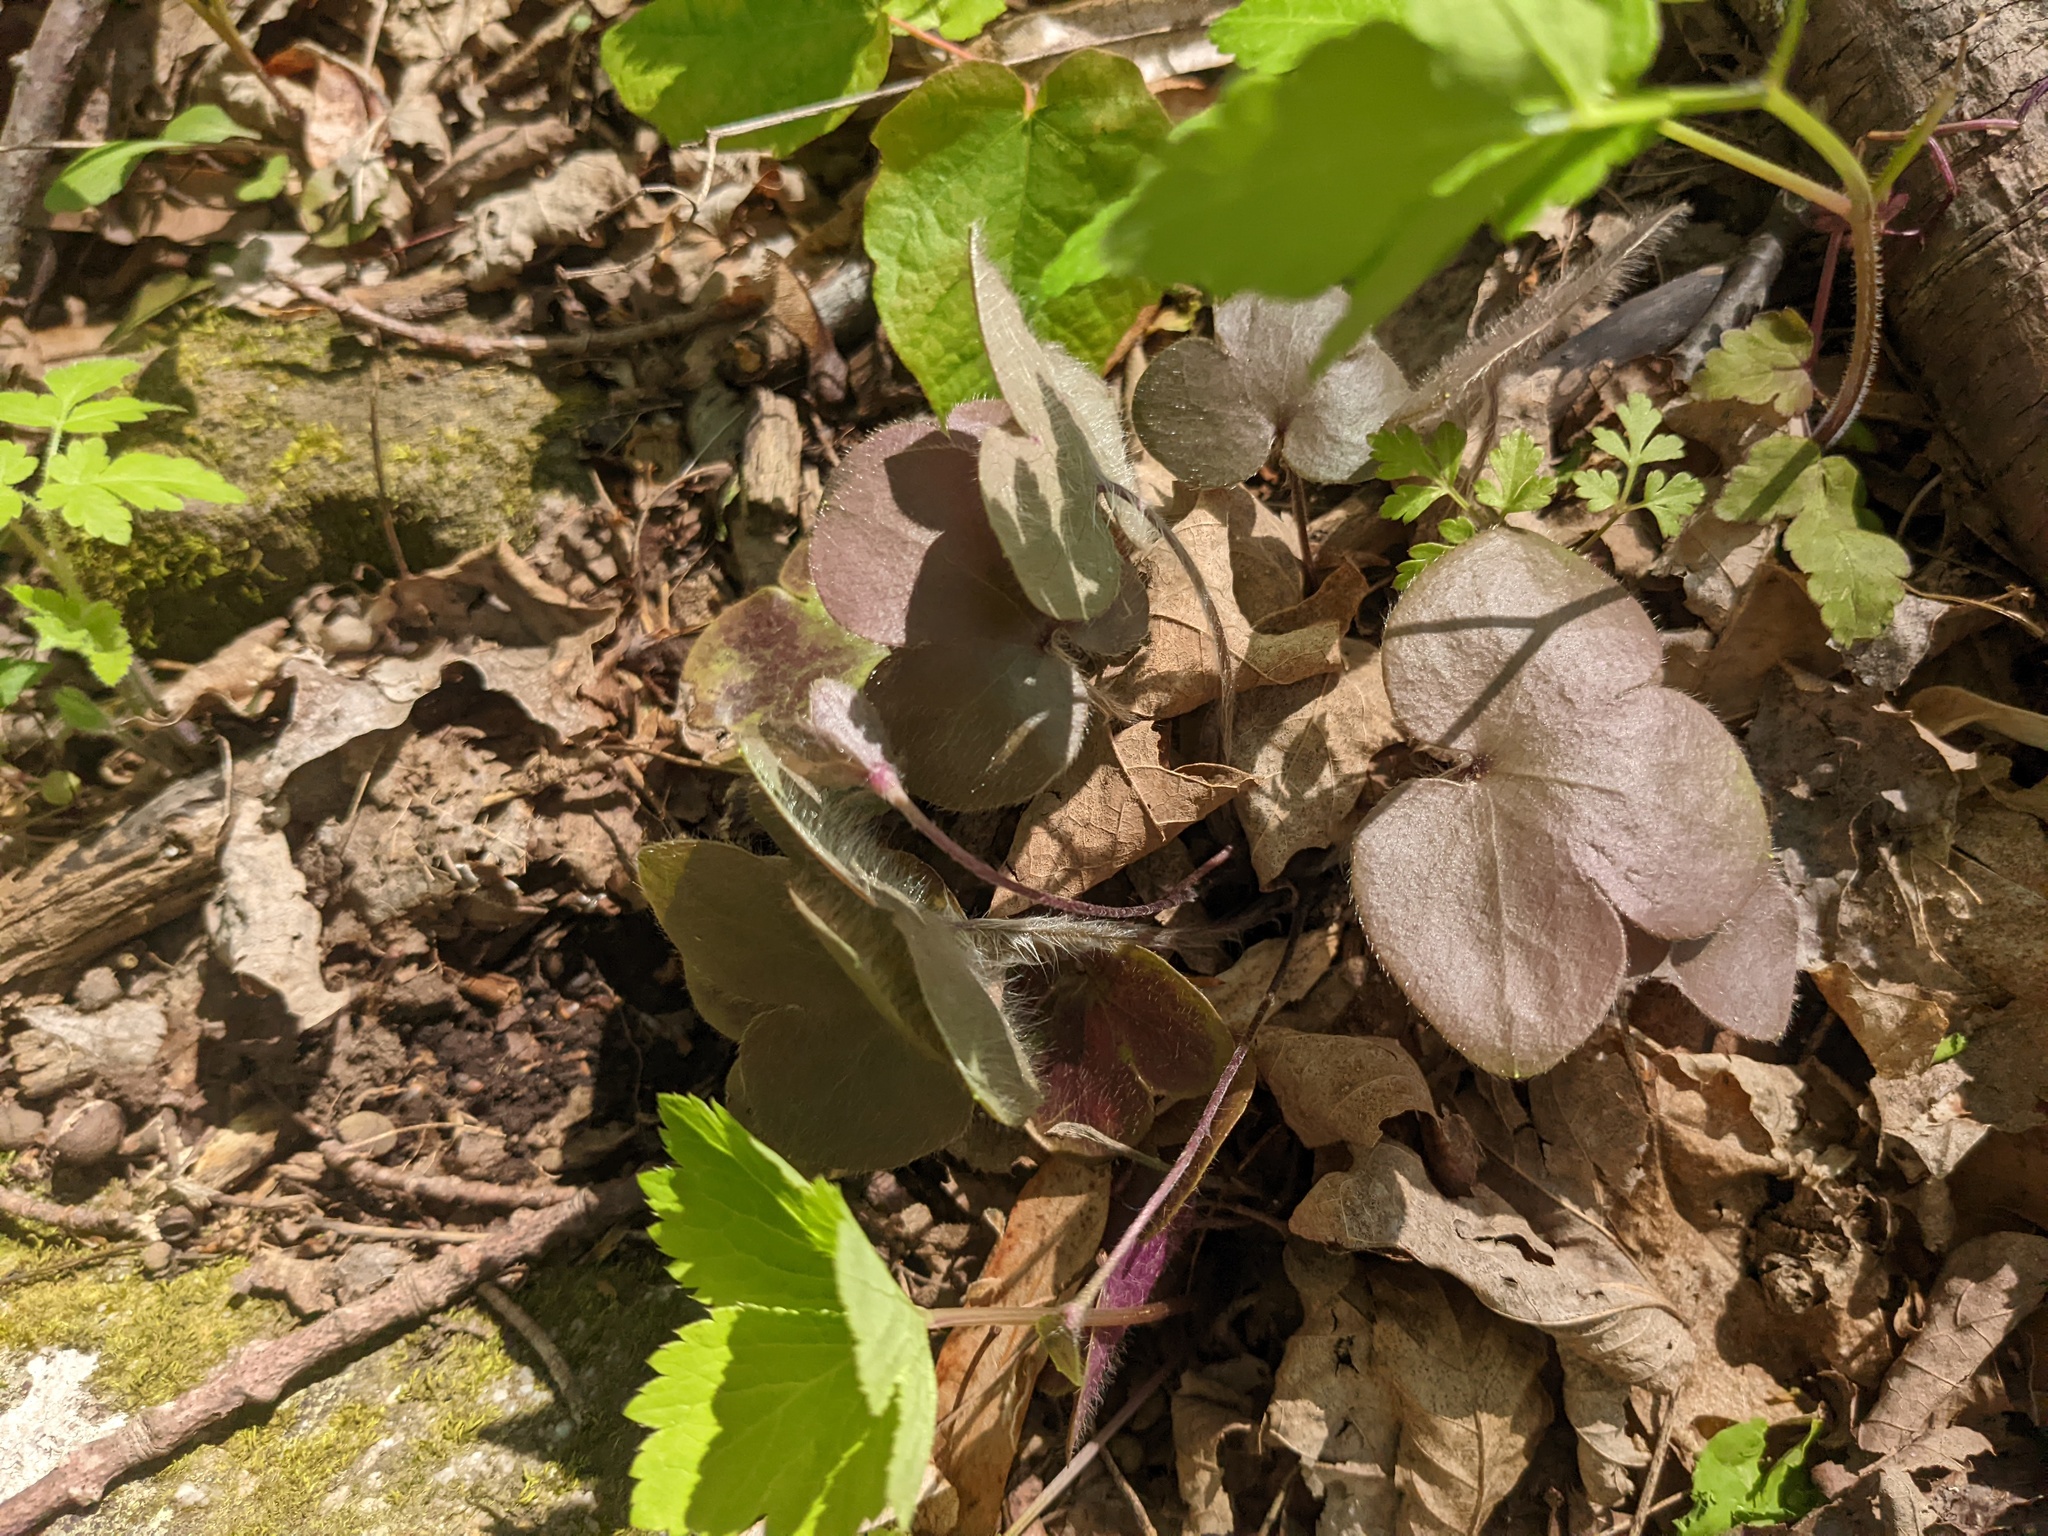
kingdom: Plantae
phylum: Tracheophyta
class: Magnoliopsida
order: Ranunculales
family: Ranunculaceae
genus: Hepatica
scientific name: Hepatica americana
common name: American hepatica
